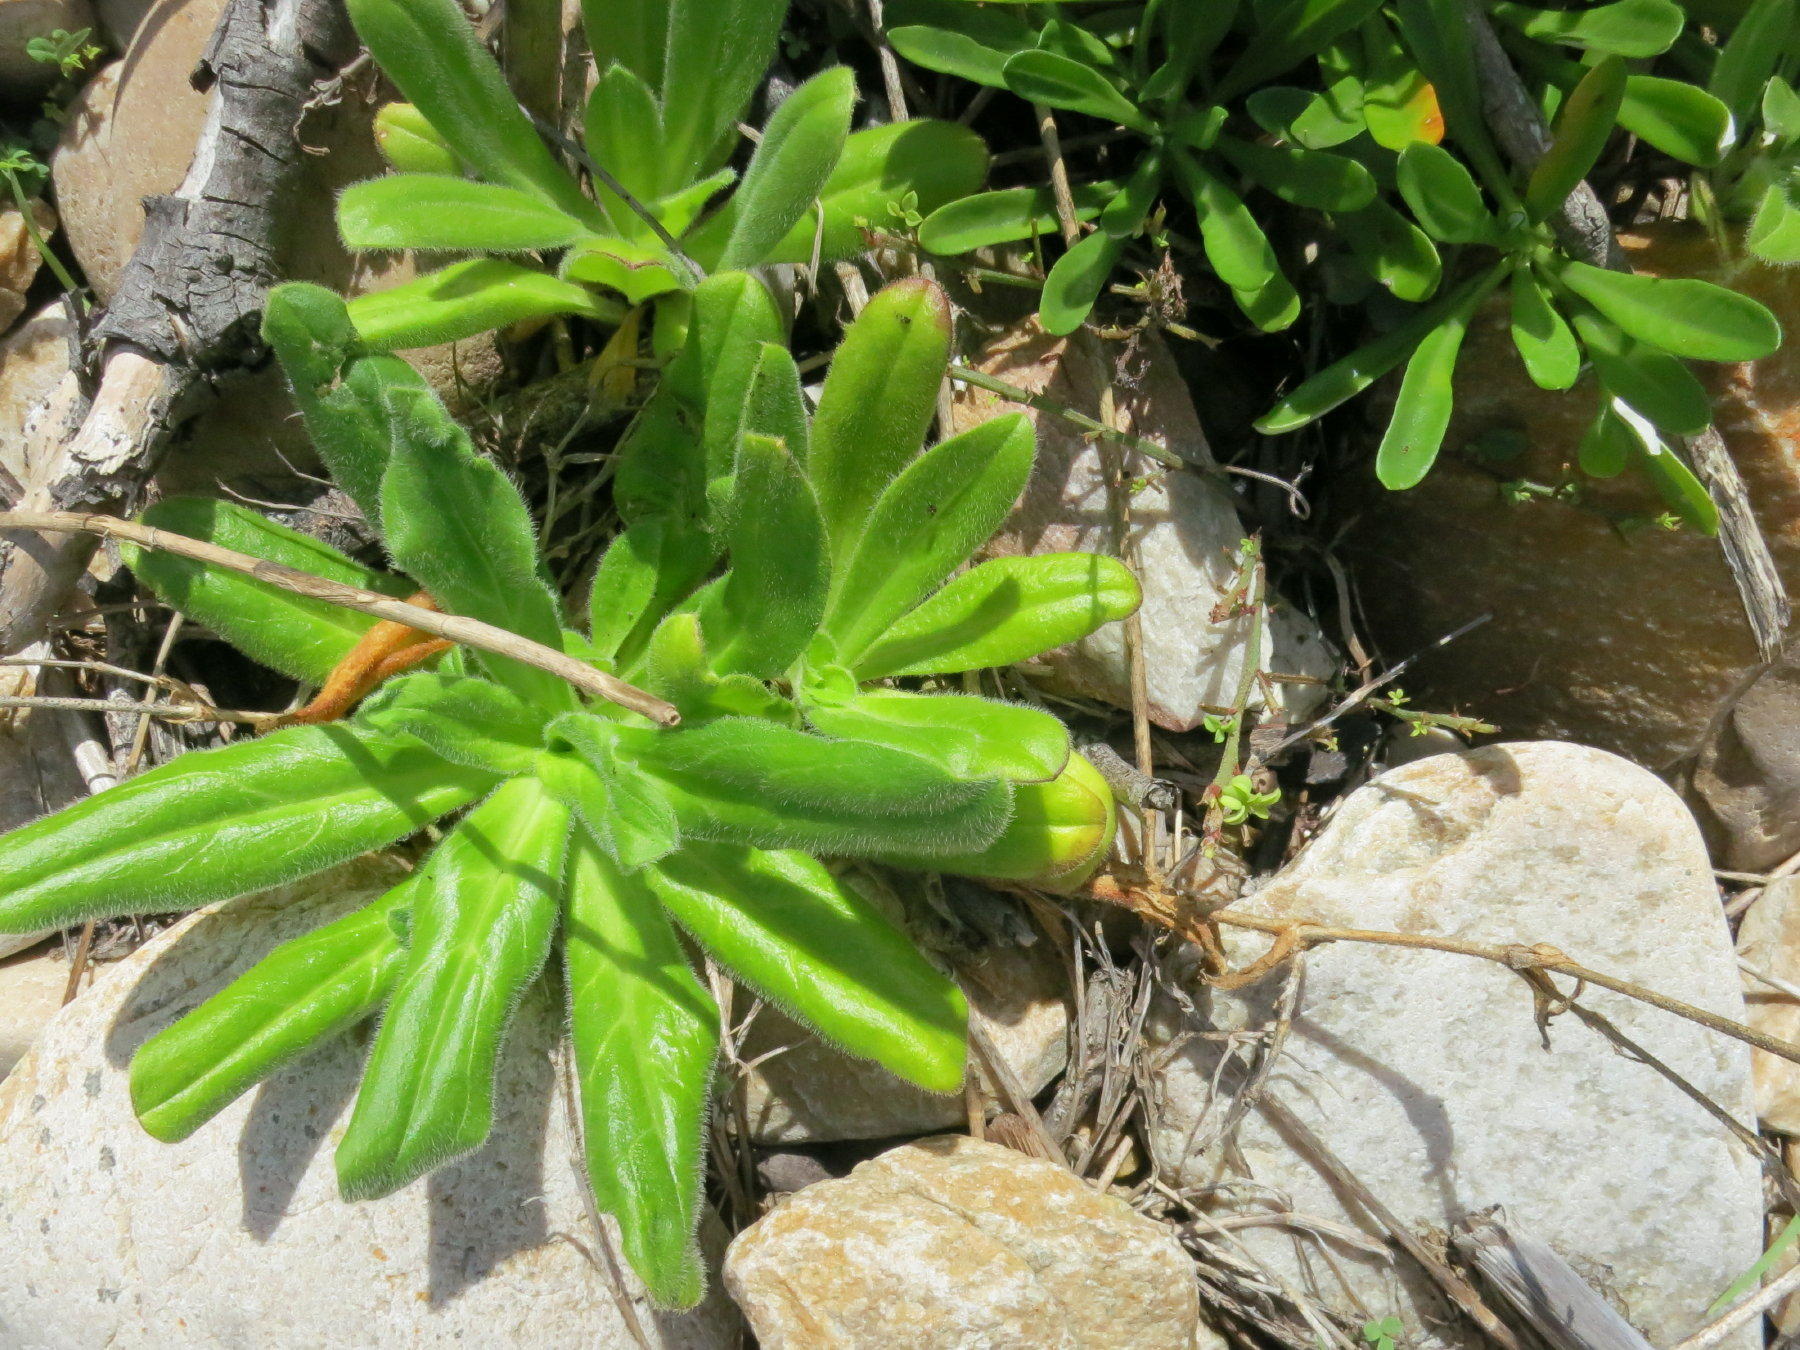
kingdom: Plantae
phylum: Tracheophyta
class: Magnoliopsida
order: Caryophyllales
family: Caryophyllaceae
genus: Silene
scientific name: Silene undulata
